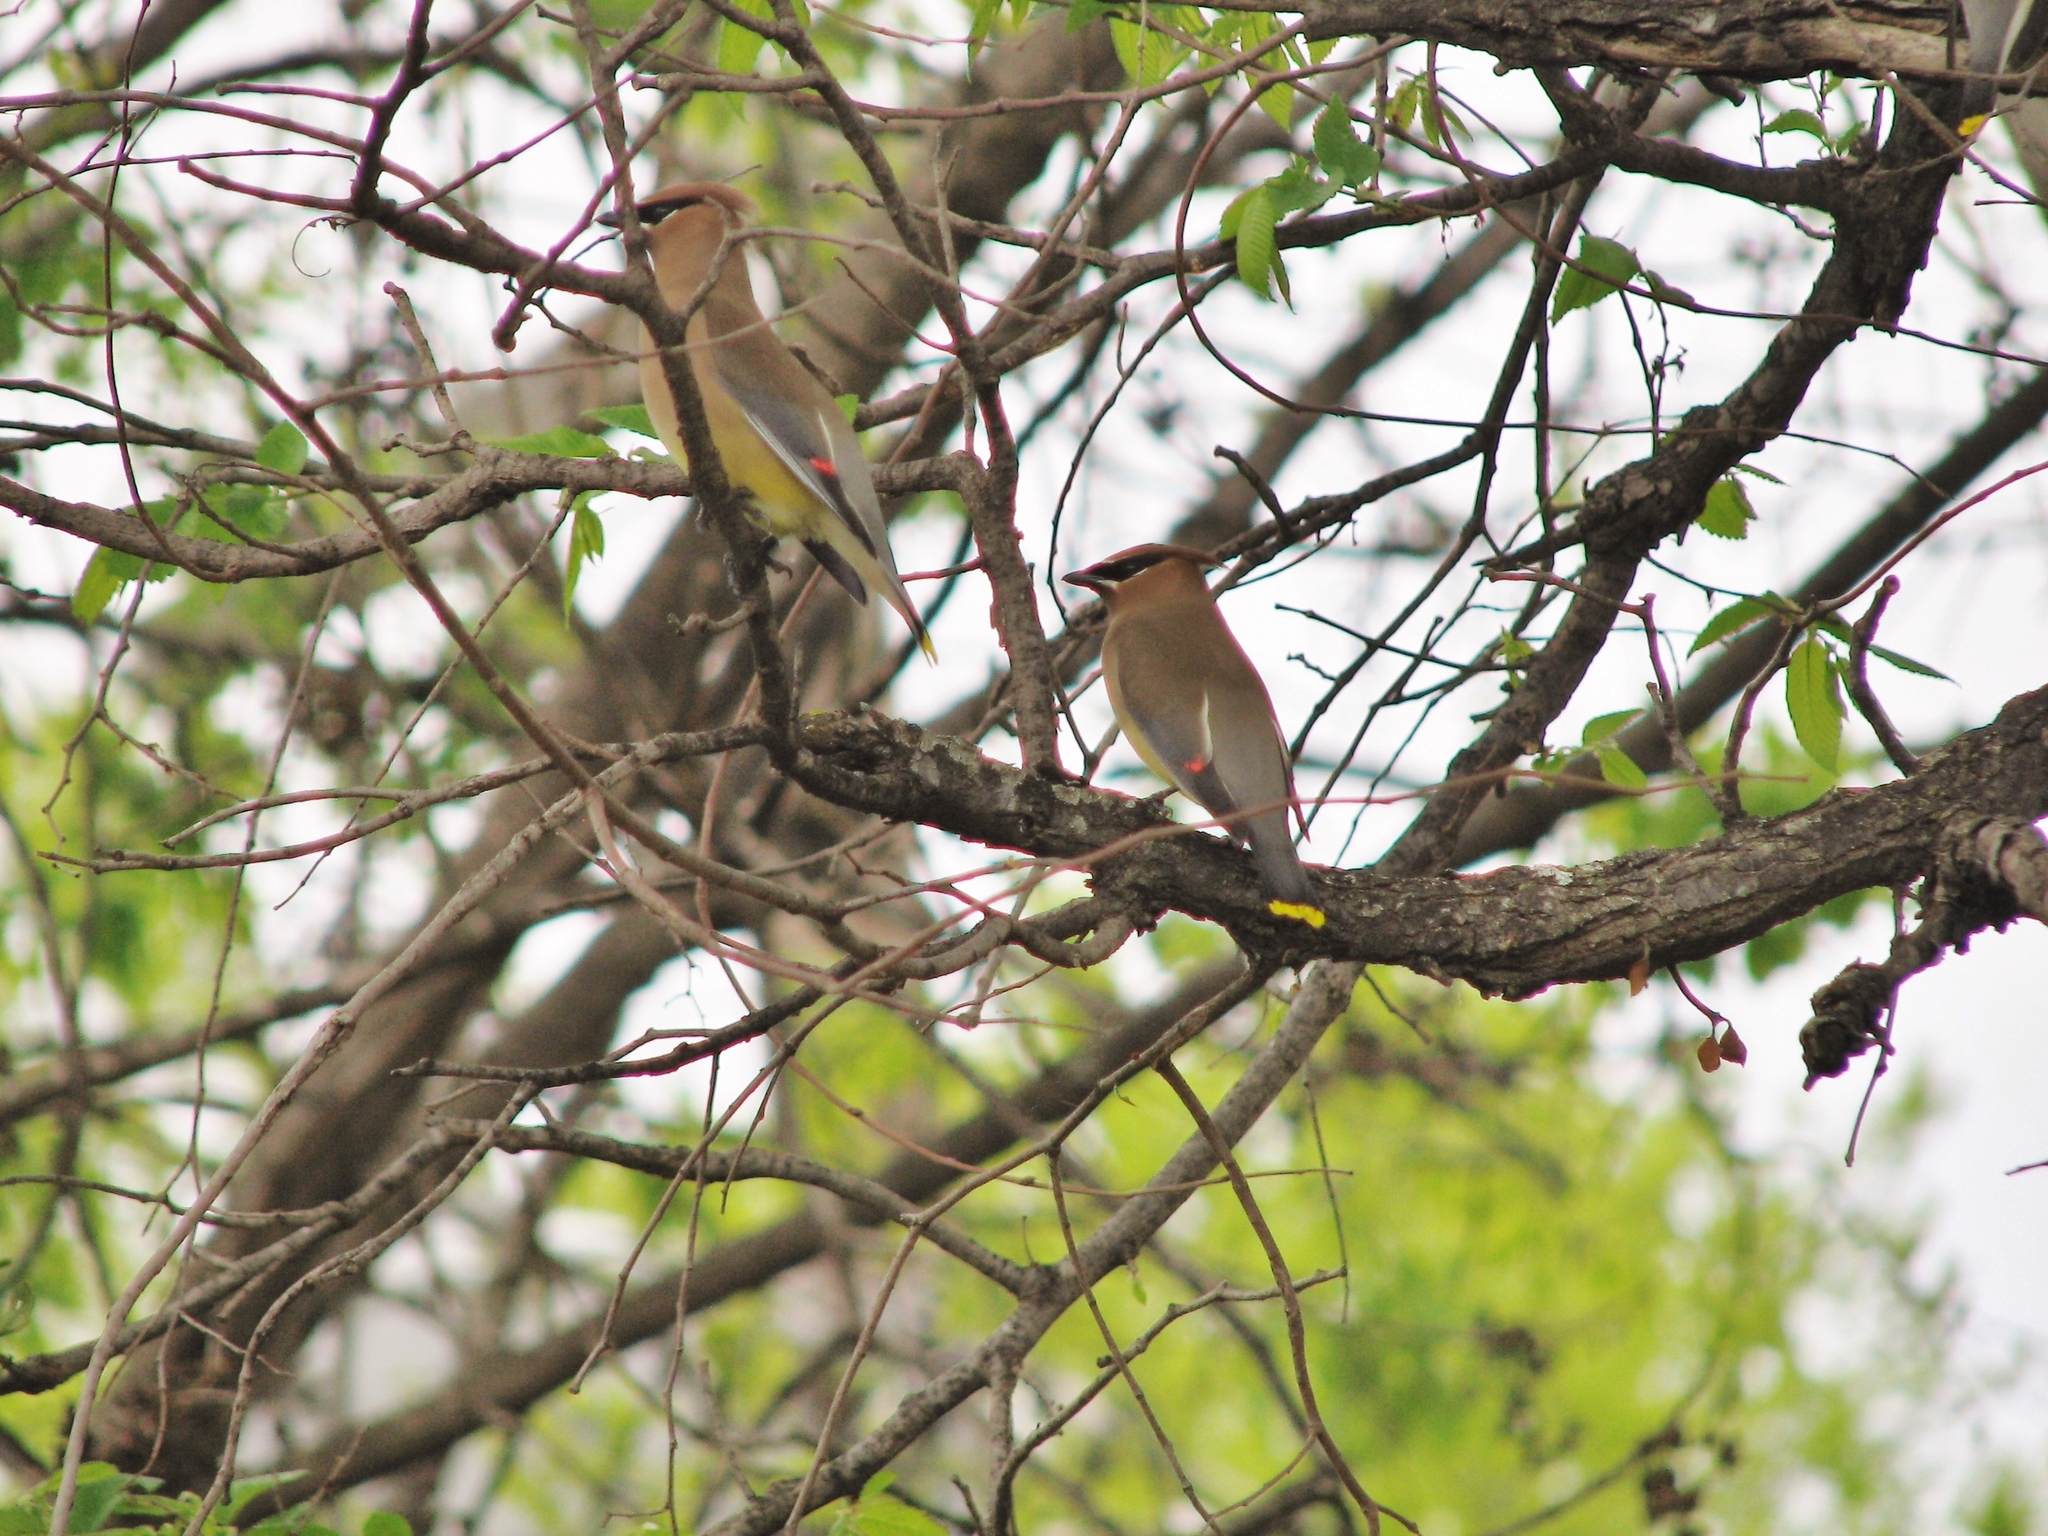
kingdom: Animalia
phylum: Chordata
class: Aves
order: Passeriformes
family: Bombycillidae
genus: Bombycilla
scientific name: Bombycilla cedrorum
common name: Cedar waxwing
